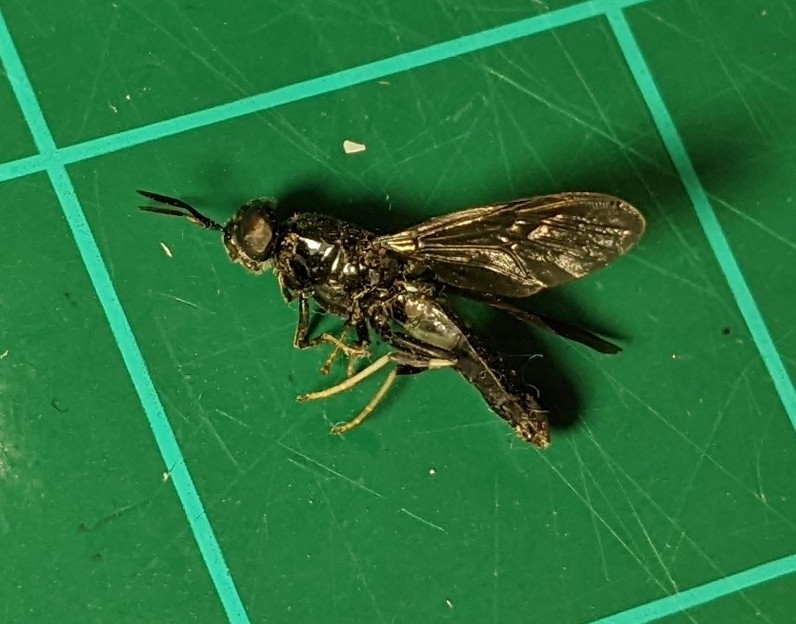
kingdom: Animalia
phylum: Arthropoda
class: Insecta
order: Diptera
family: Stratiomyidae
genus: Hermetia
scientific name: Hermetia illucens
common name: Black soldier fly
